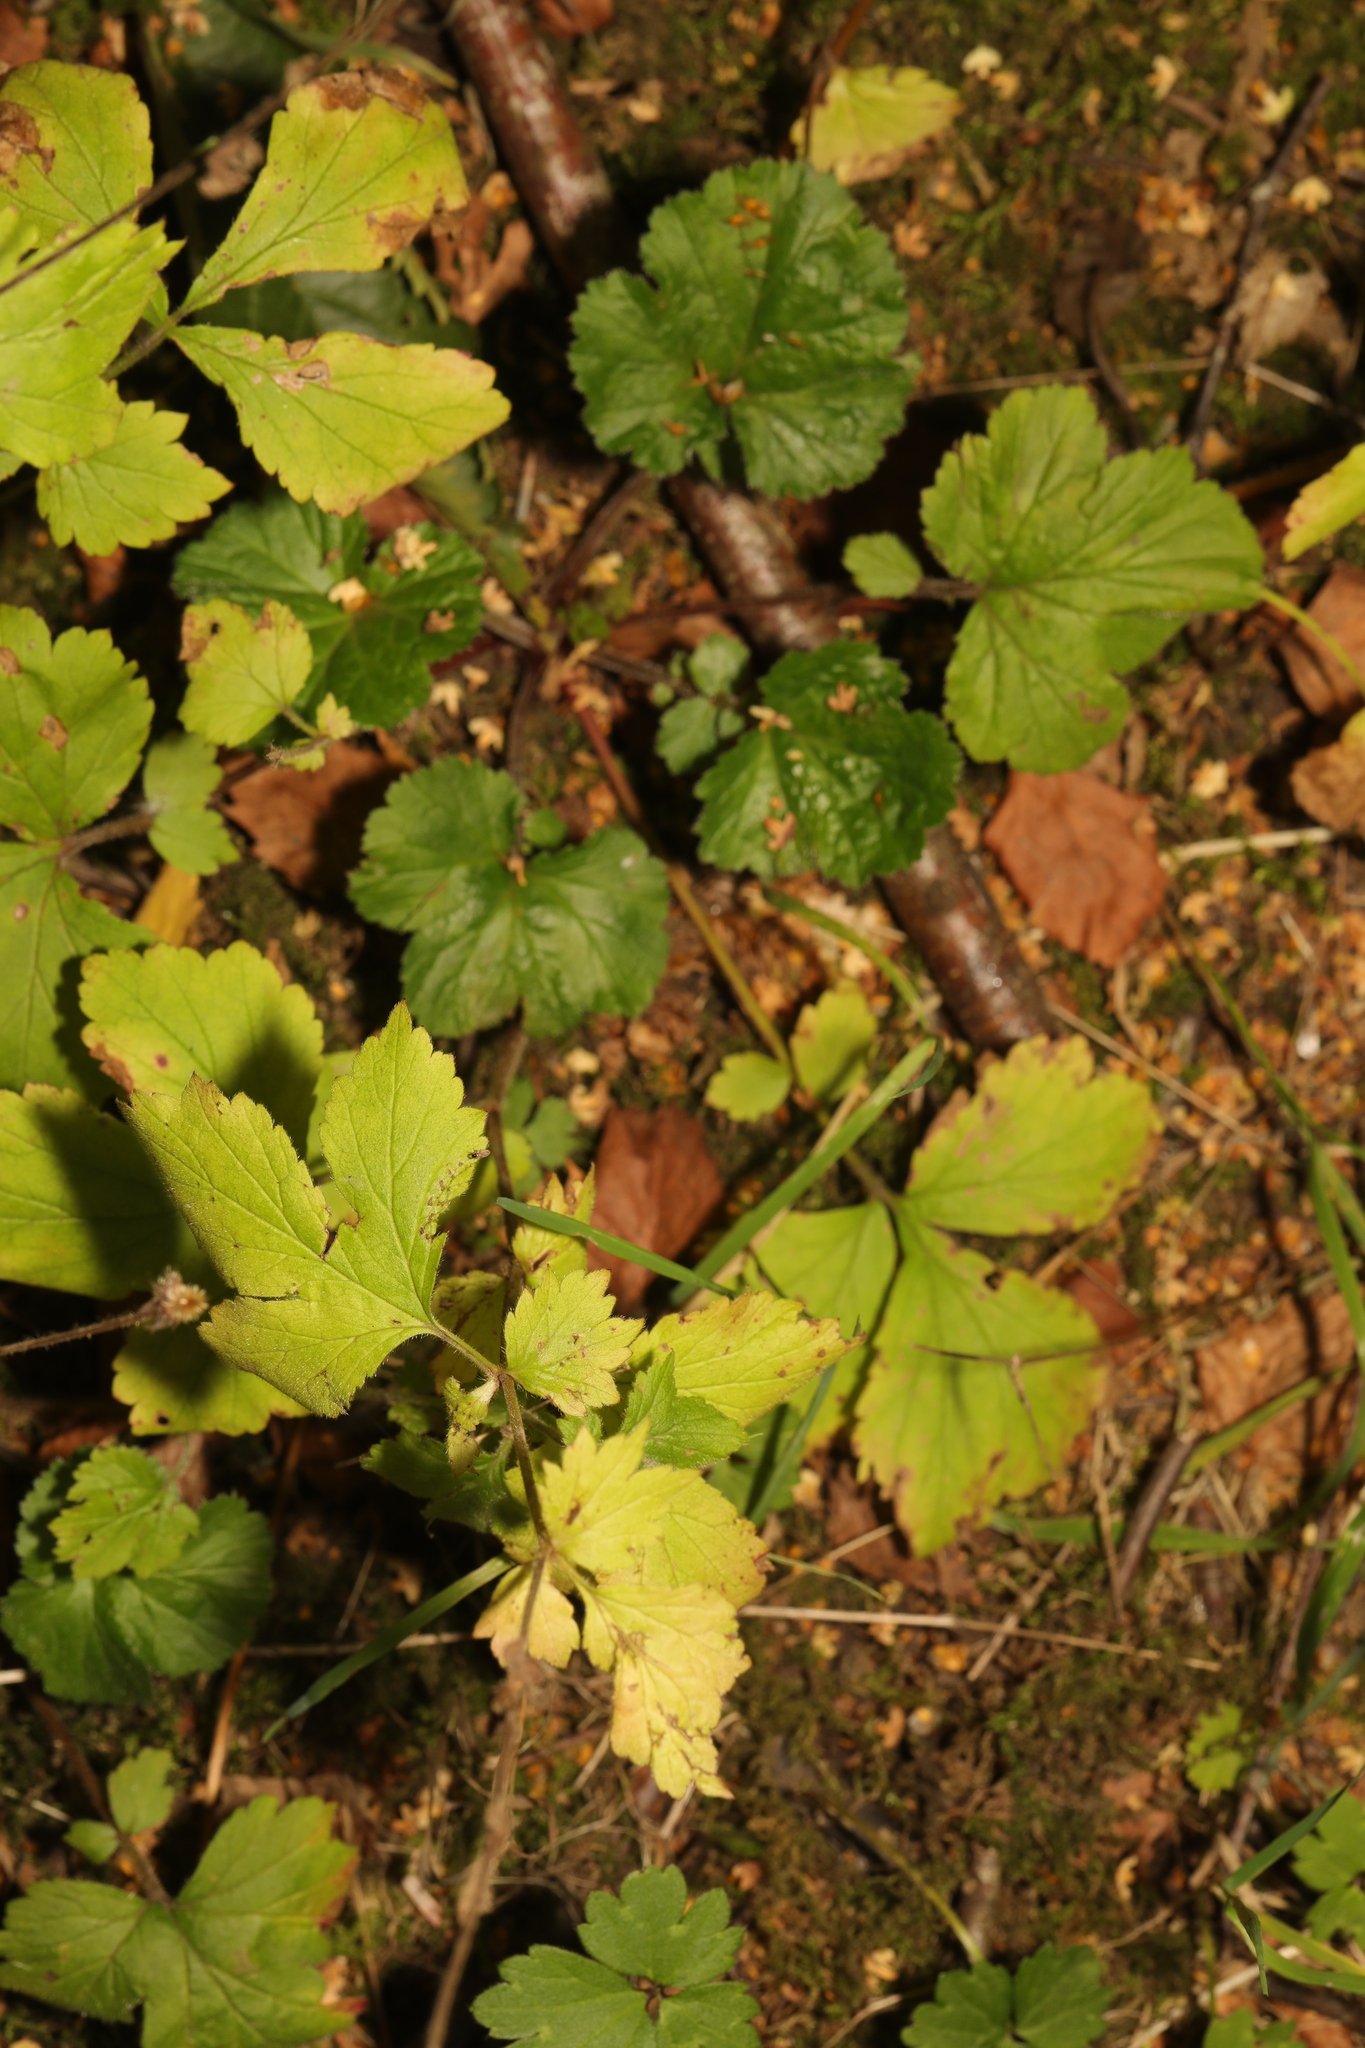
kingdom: Plantae
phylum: Tracheophyta
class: Magnoliopsida
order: Rosales
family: Rosaceae
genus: Geum
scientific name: Geum urbanum
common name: Wood avens
